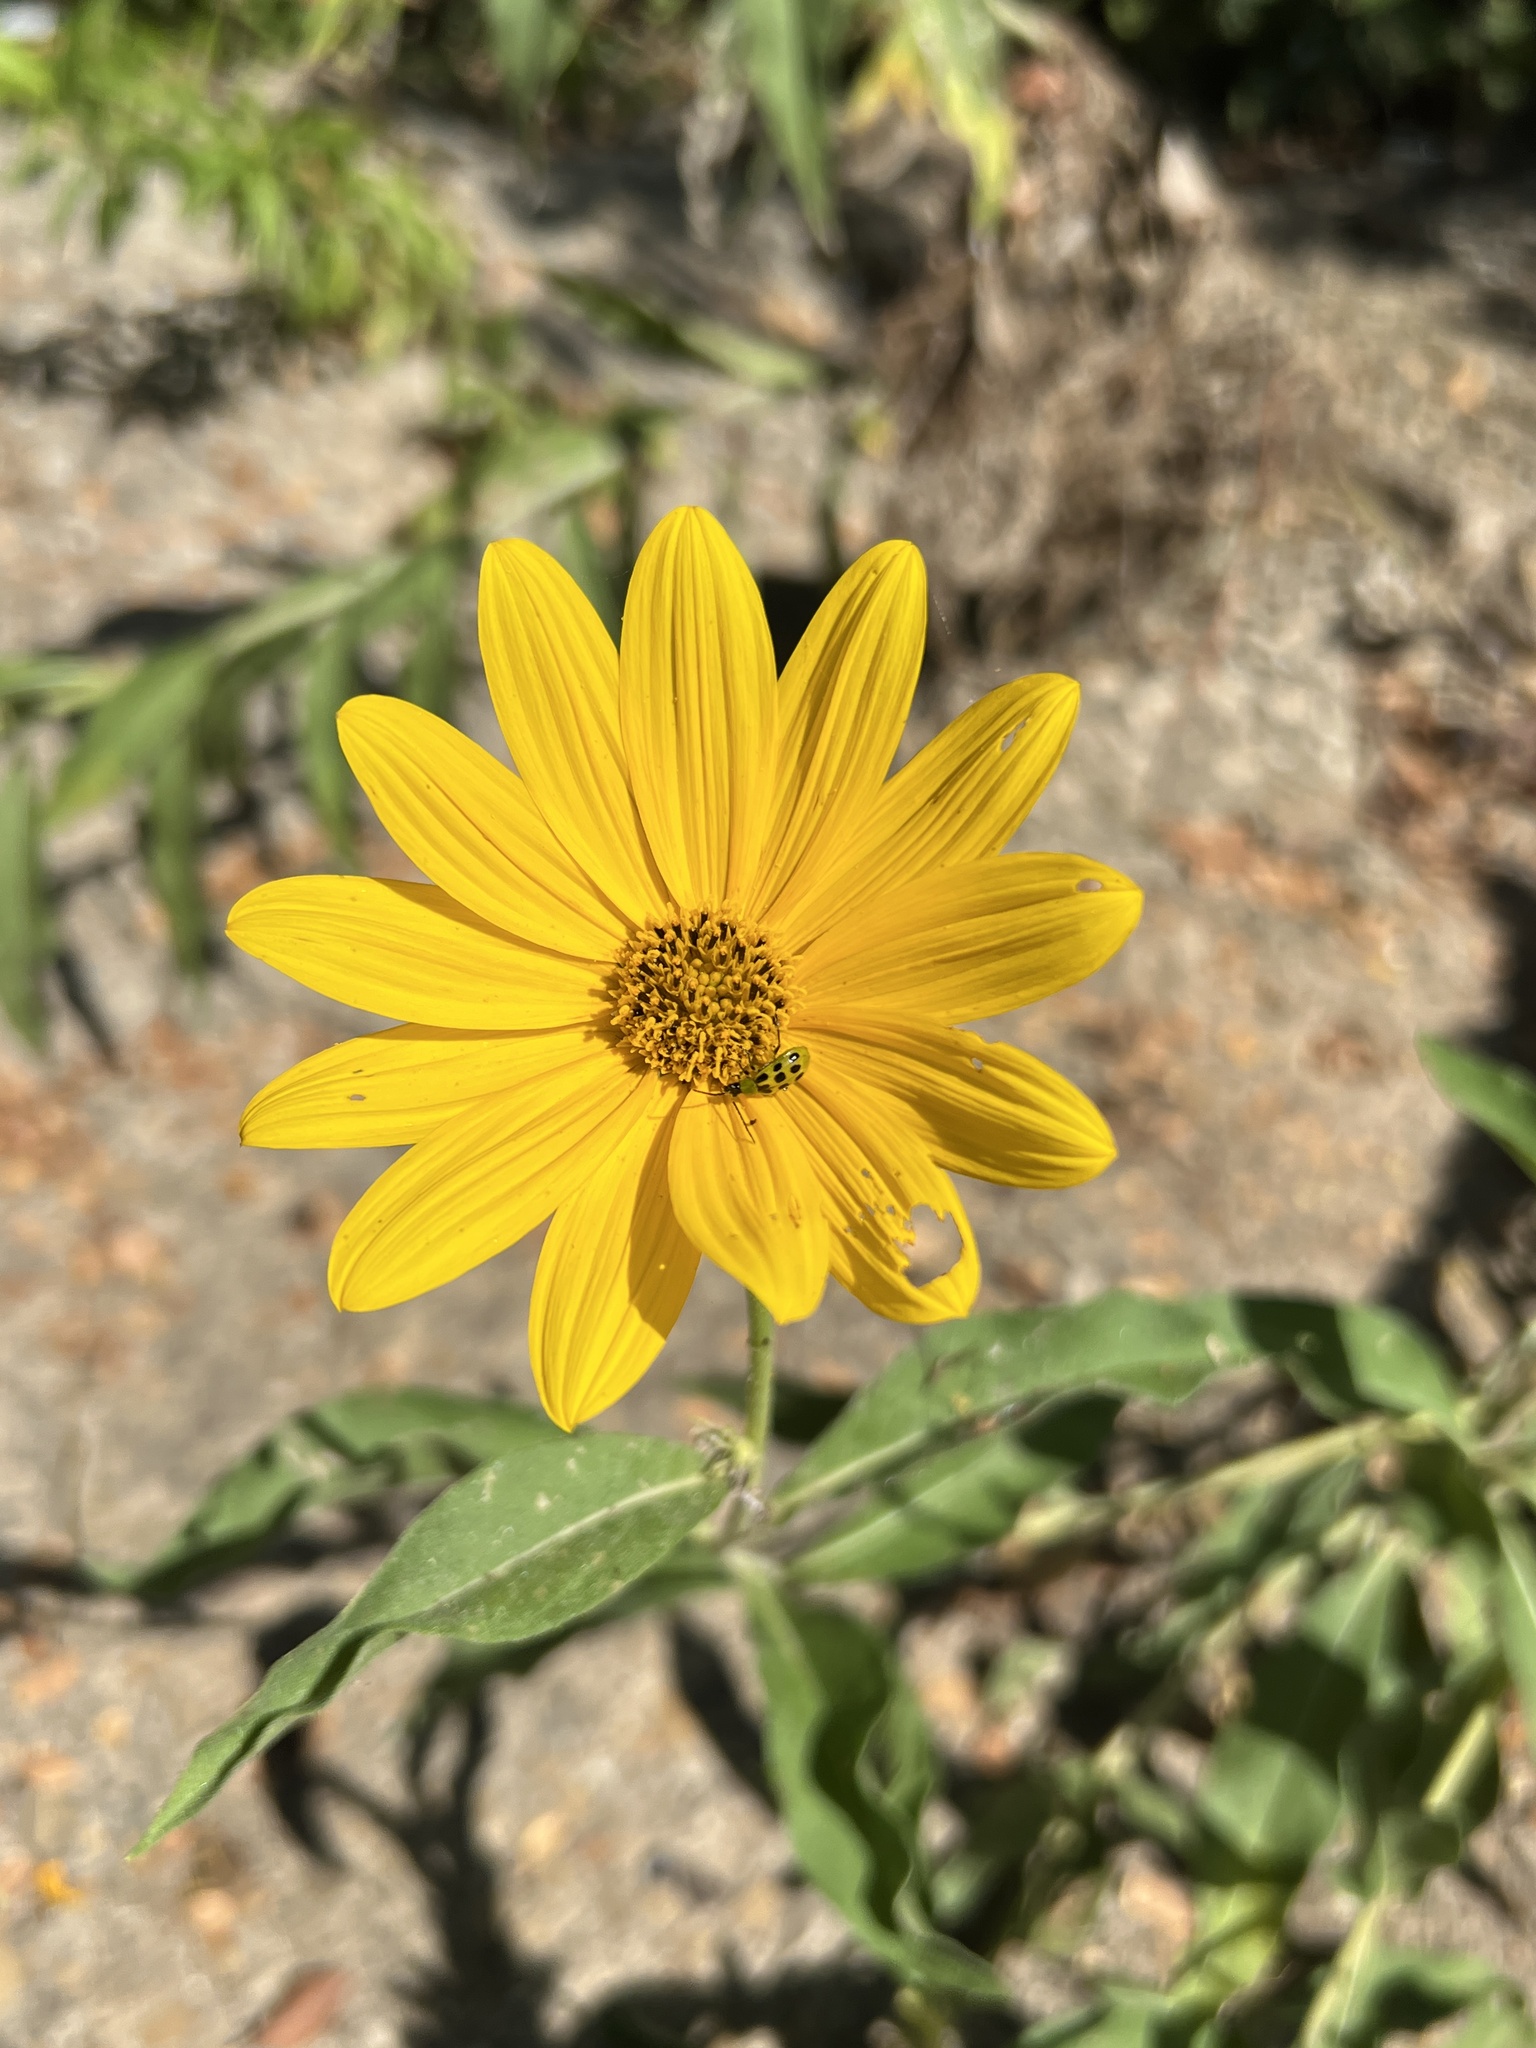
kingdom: Animalia
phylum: Arthropoda
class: Insecta
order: Coleoptera
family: Chrysomelidae
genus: Diabrotica
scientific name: Diabrotica undecimpunctata
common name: Spotted cucumber beetle
